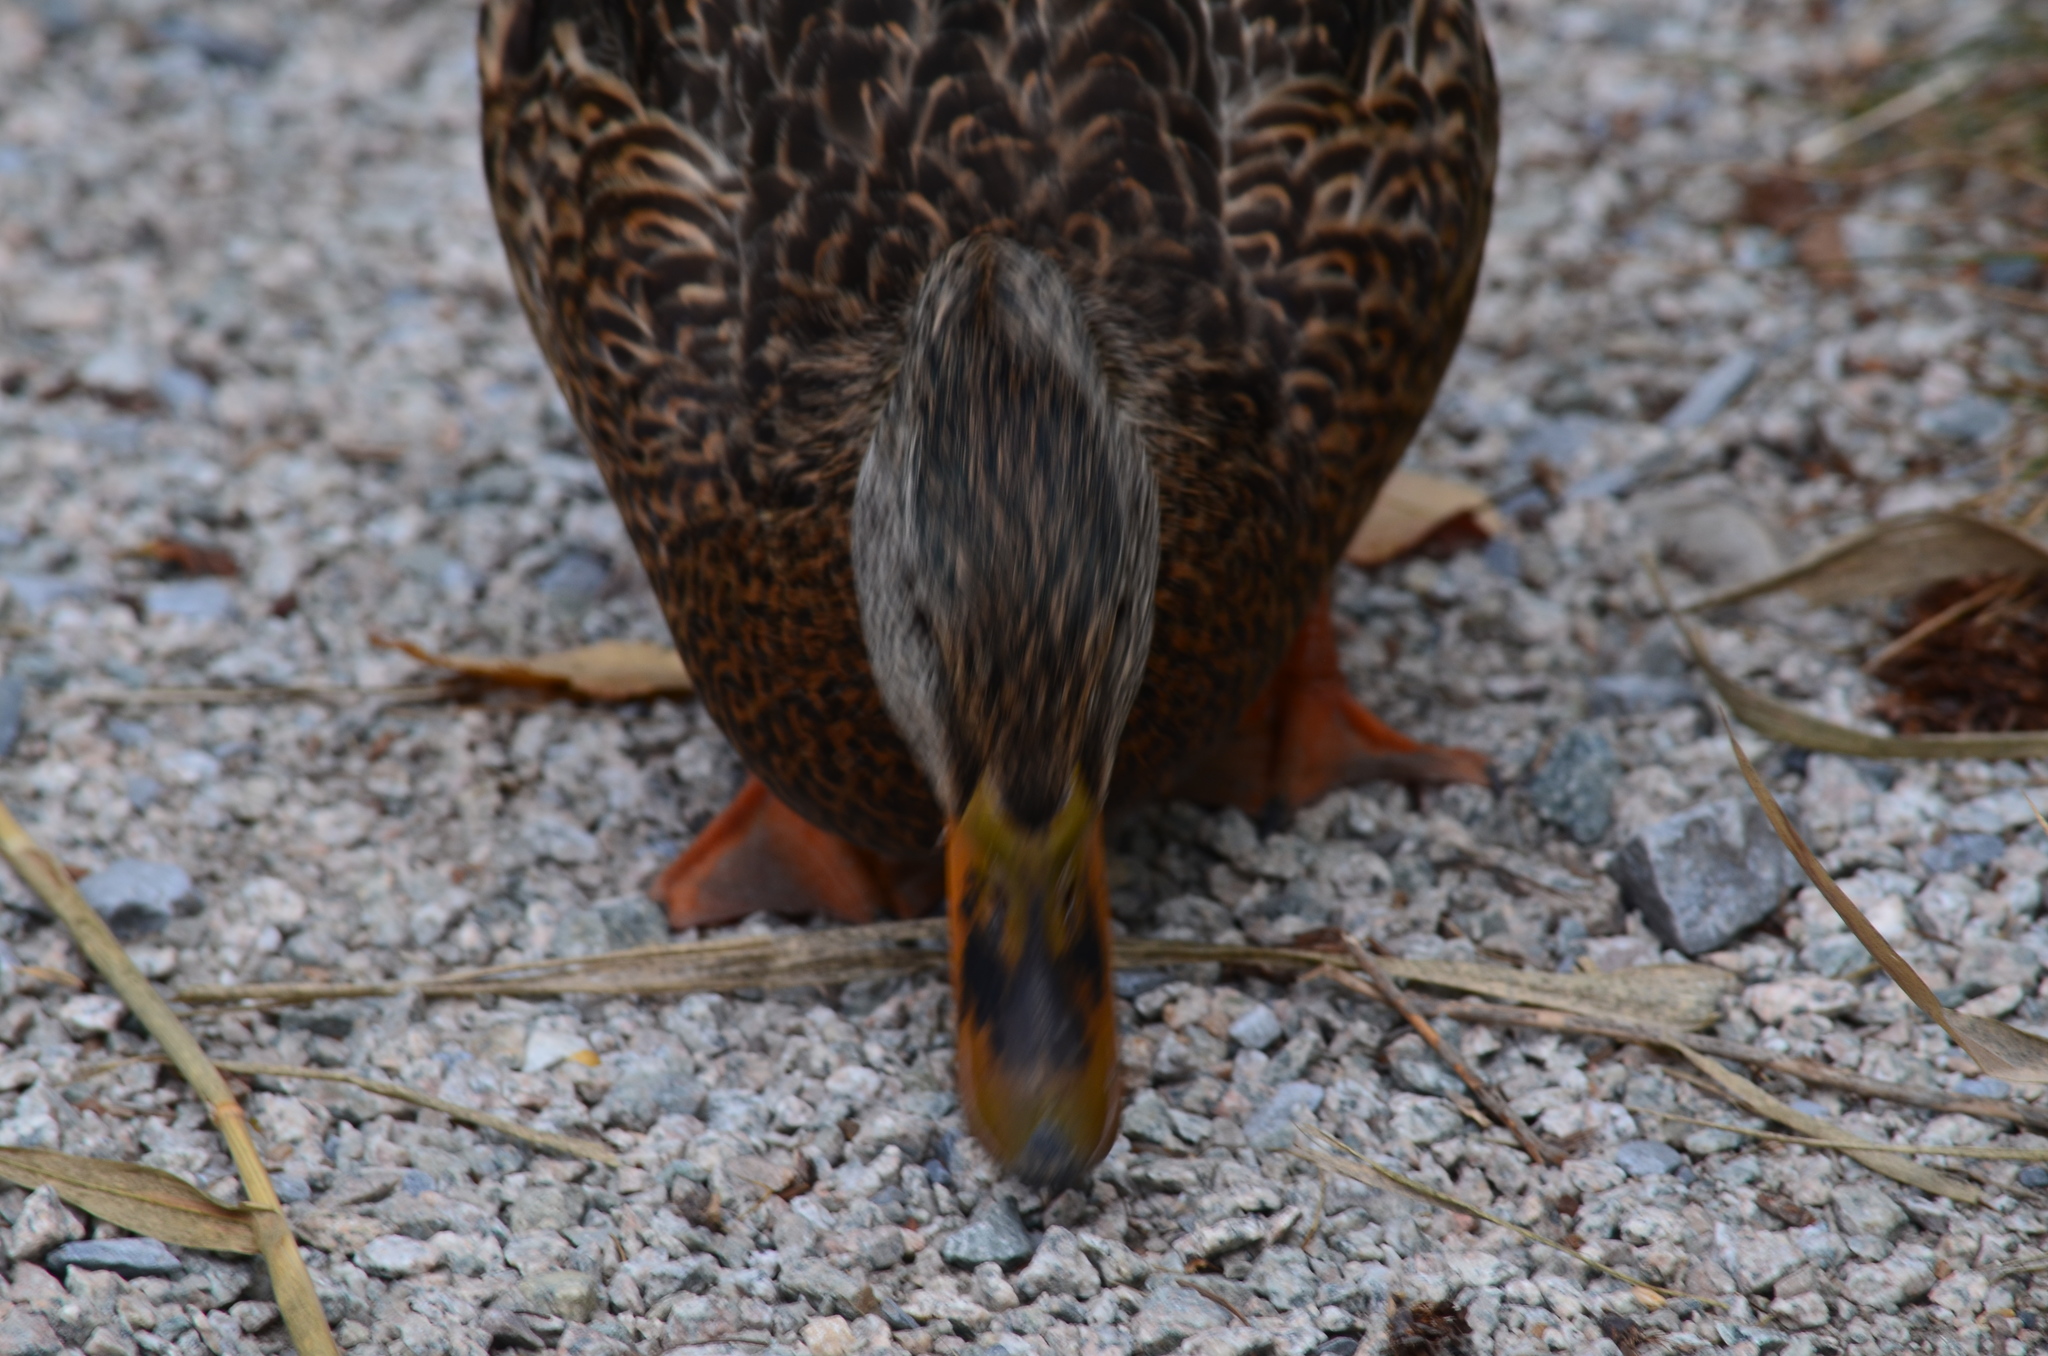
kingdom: Animalia
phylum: Chordata
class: Aves
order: Anseriformes
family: Anatidae
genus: Anas
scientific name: Anas platyrhynchos
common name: Mallard
